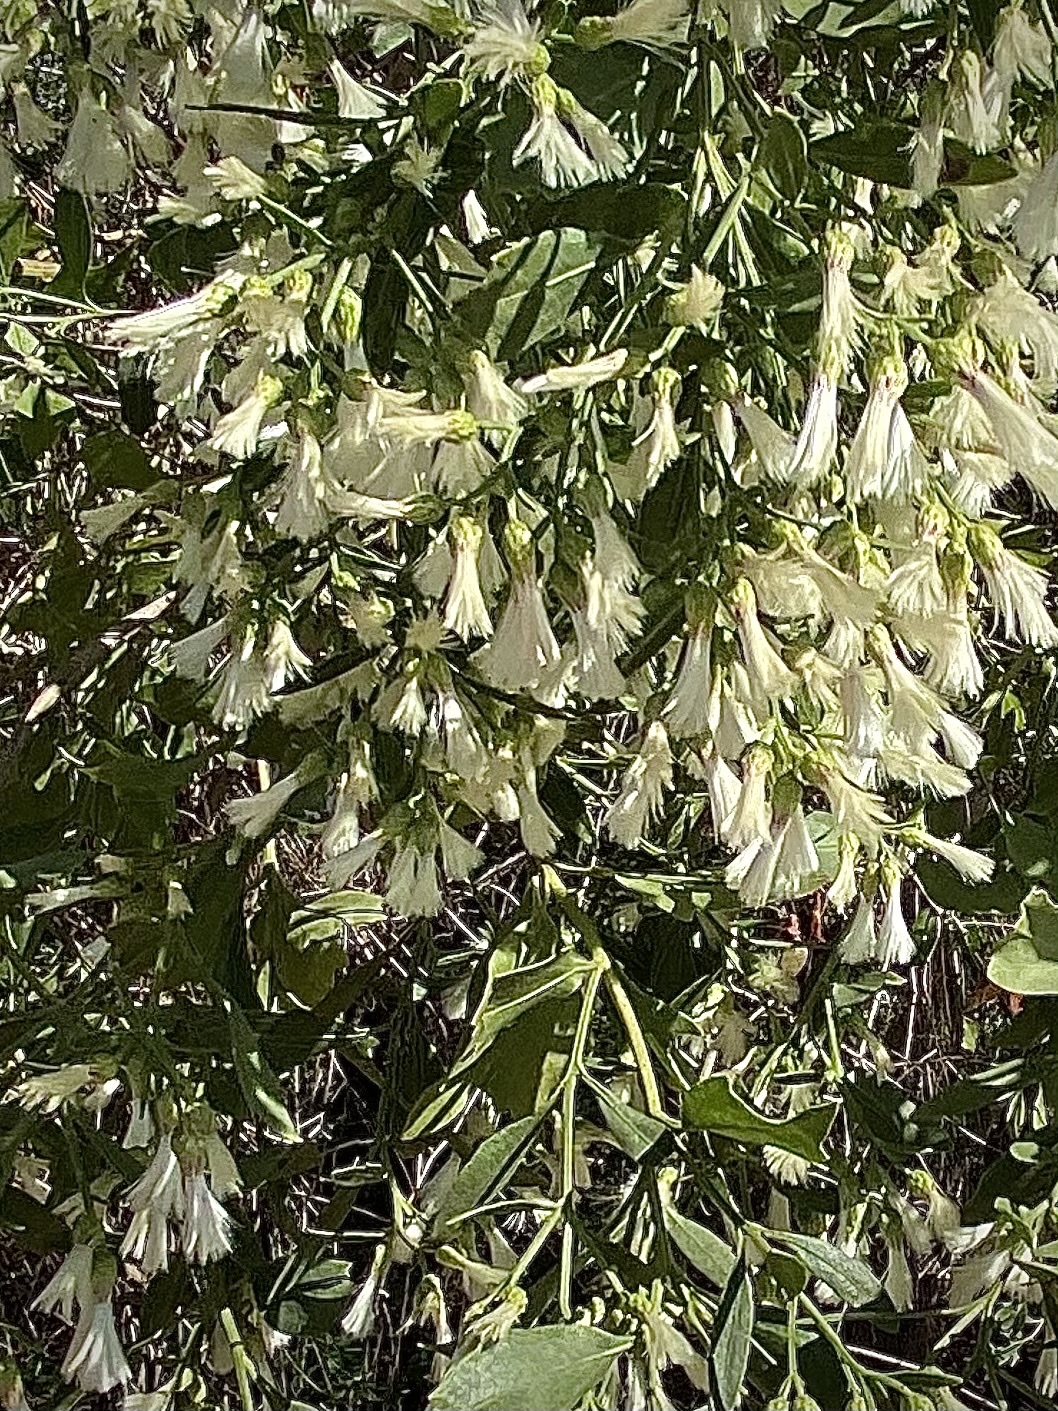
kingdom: Plantae
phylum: Tracheophyta
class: Magnoliopsida
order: Asterales
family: Asteraceae
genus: Baccharis
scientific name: Baccharis halimifolia
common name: Eastern baccharis
